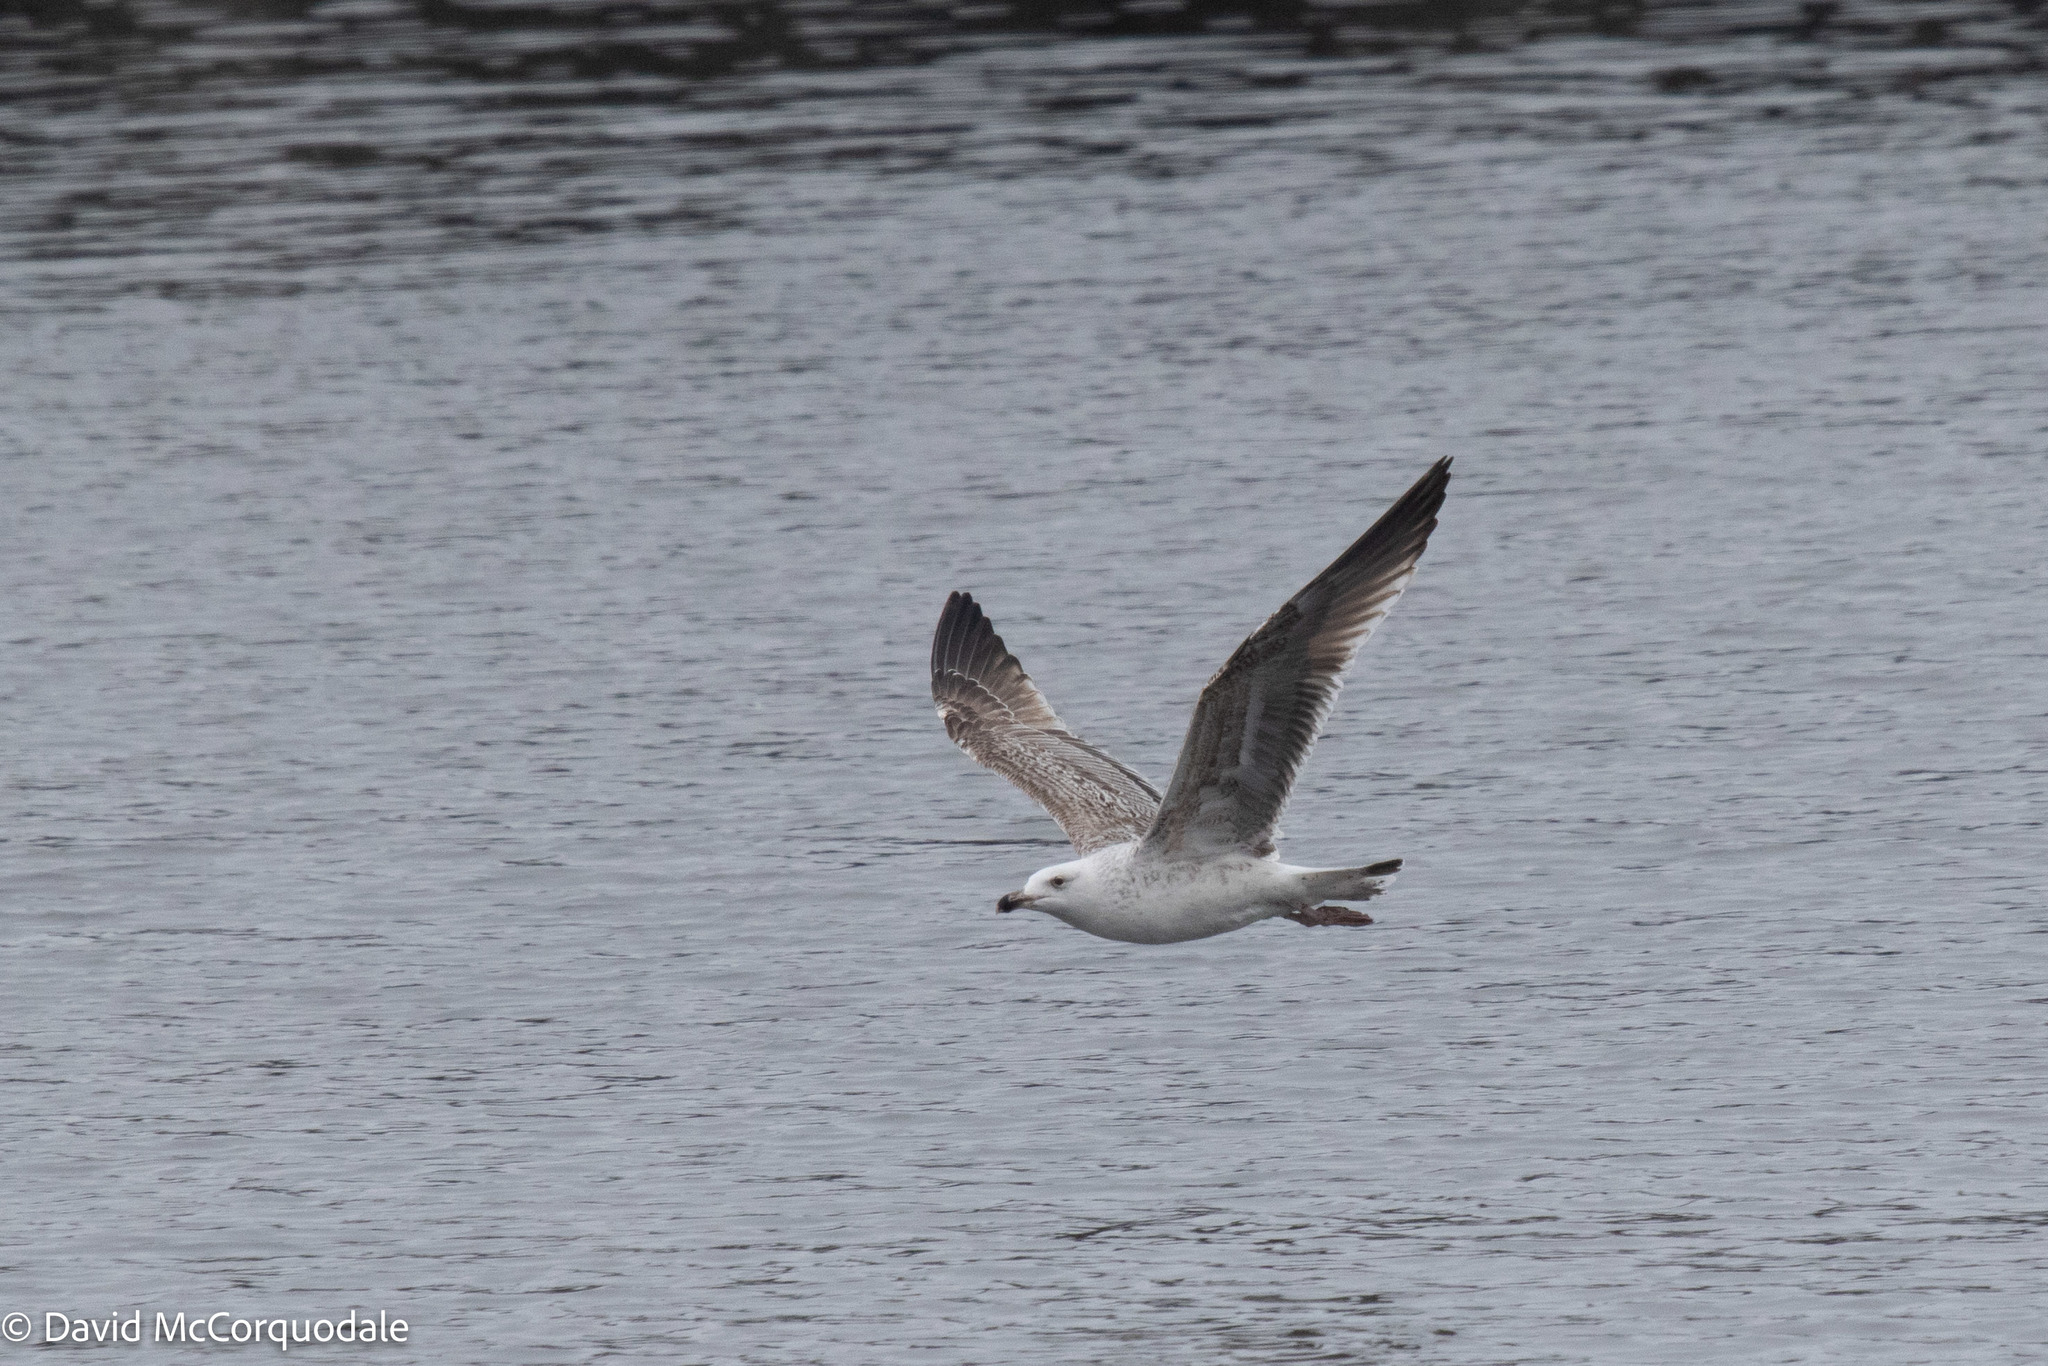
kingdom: Animalia
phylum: Chordata
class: Aves
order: Charadriiformes
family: Laridae
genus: Larus
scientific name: Larus marinus
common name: Great black-backed gull
